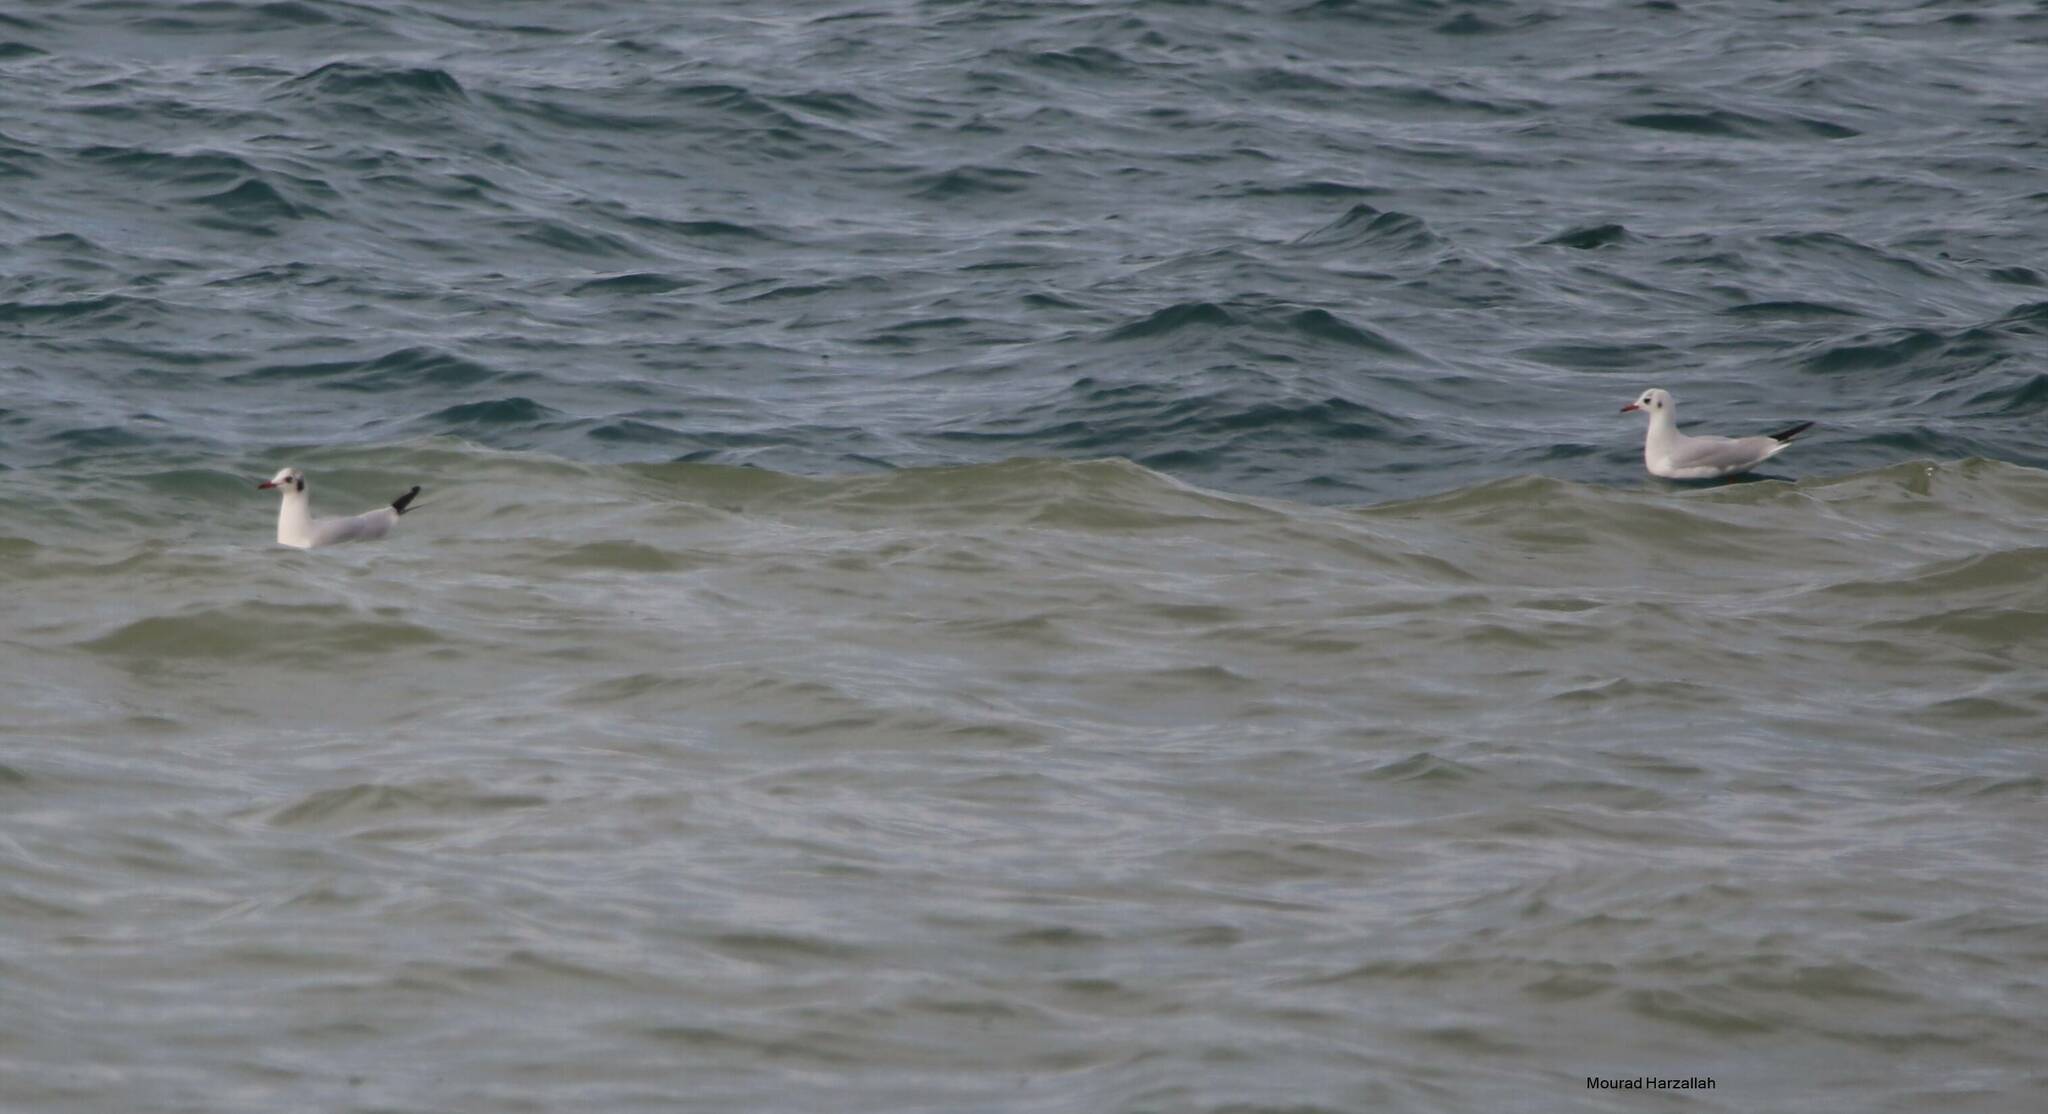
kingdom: Animalia
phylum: Chordata
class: Aves
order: Charadriiformes
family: Laridae
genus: Chroicocephalus
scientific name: Chroicocephalus ridibundus
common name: Black-headed gull
